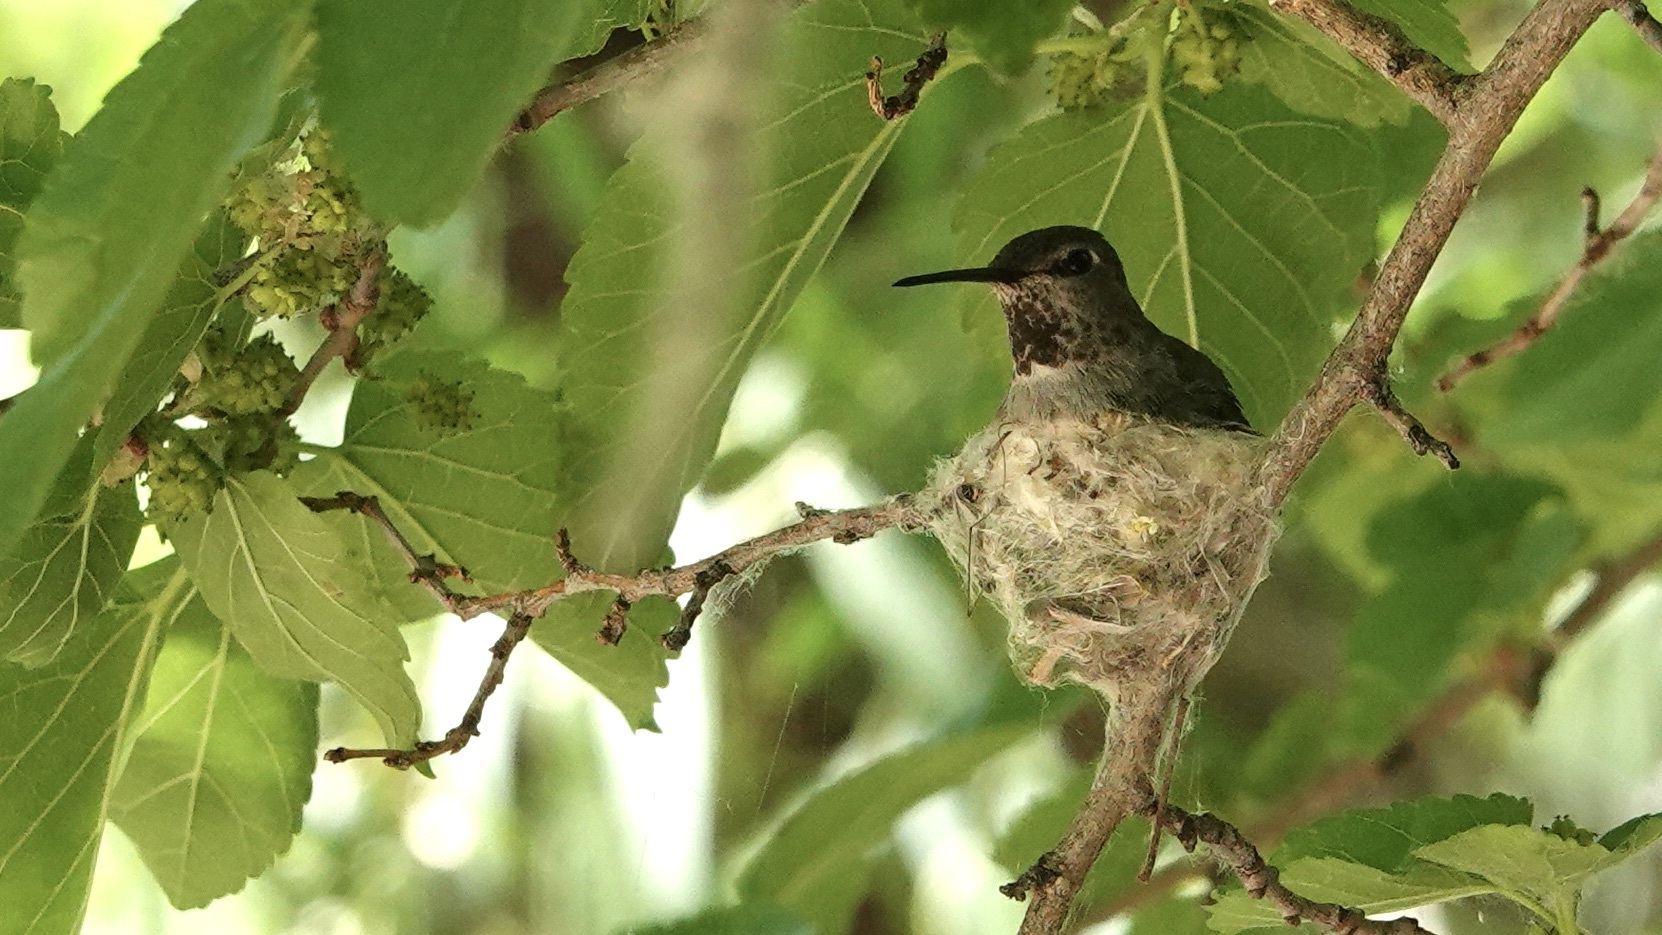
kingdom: Animalia
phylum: Chordata
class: Aves
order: Apodiformes
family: Trochilidae
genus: Calypte
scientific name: Calypte anna
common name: Anna's hummingbird
